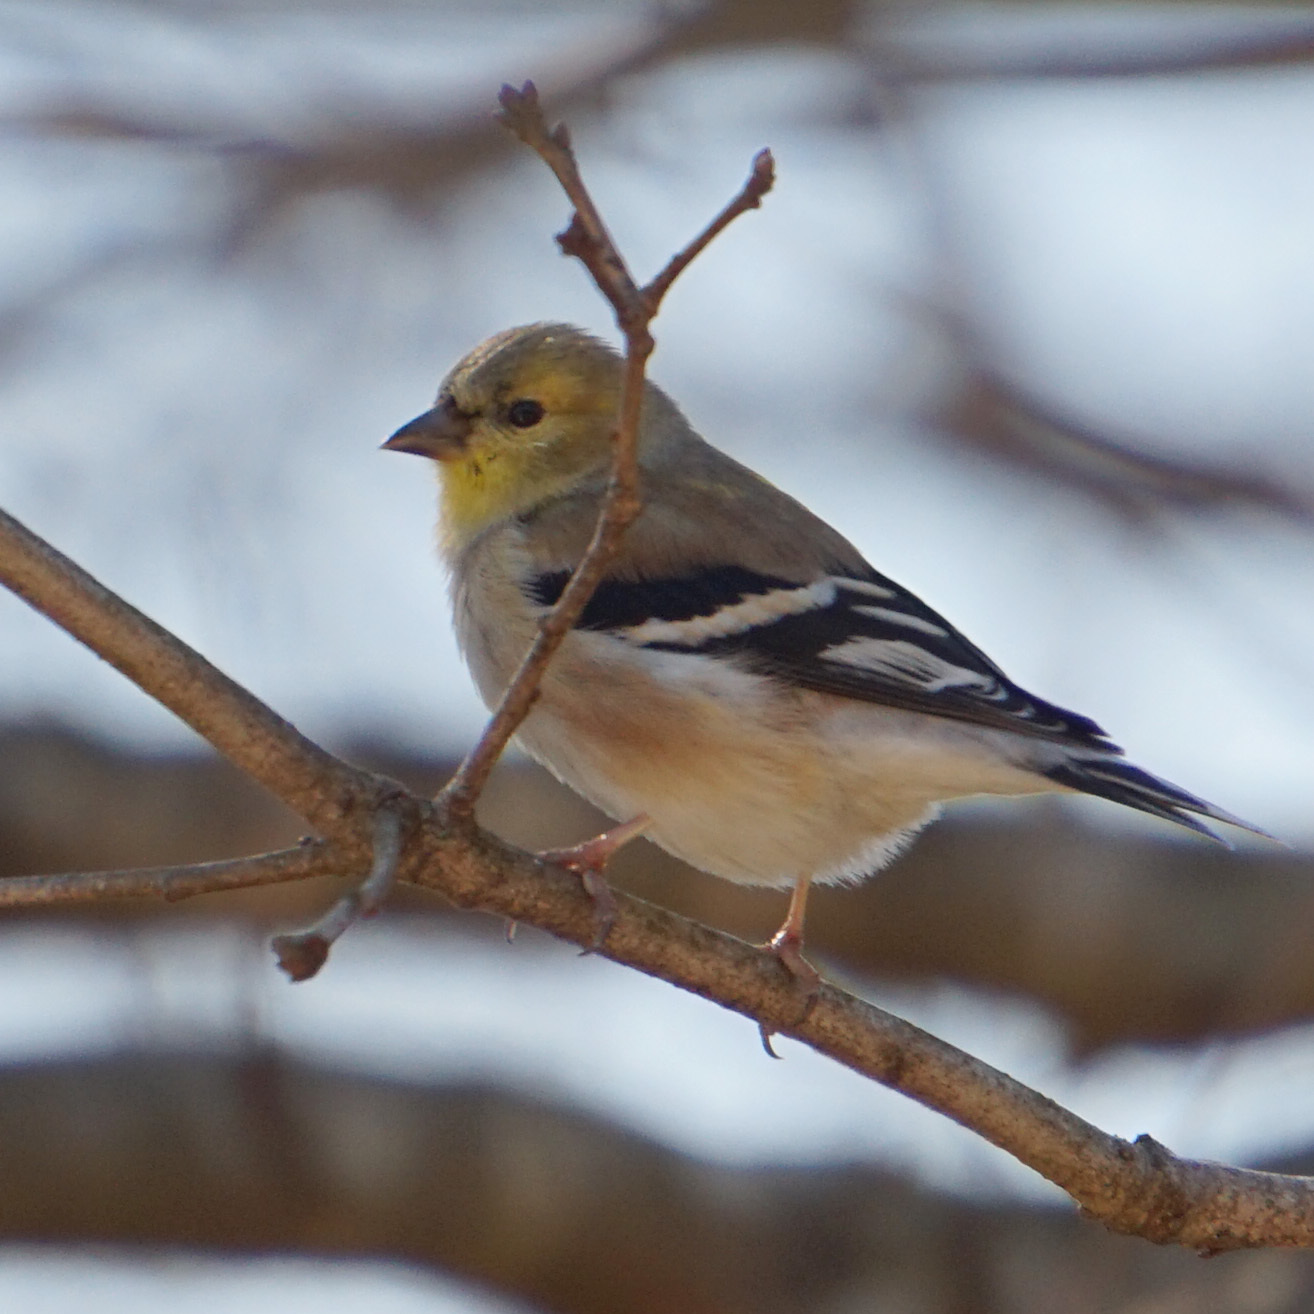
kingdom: Animalia
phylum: Chordata
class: Aves
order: Passeriformes
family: Fringillidae
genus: Spinus
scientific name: Spinus tristis
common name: American goldfinch
